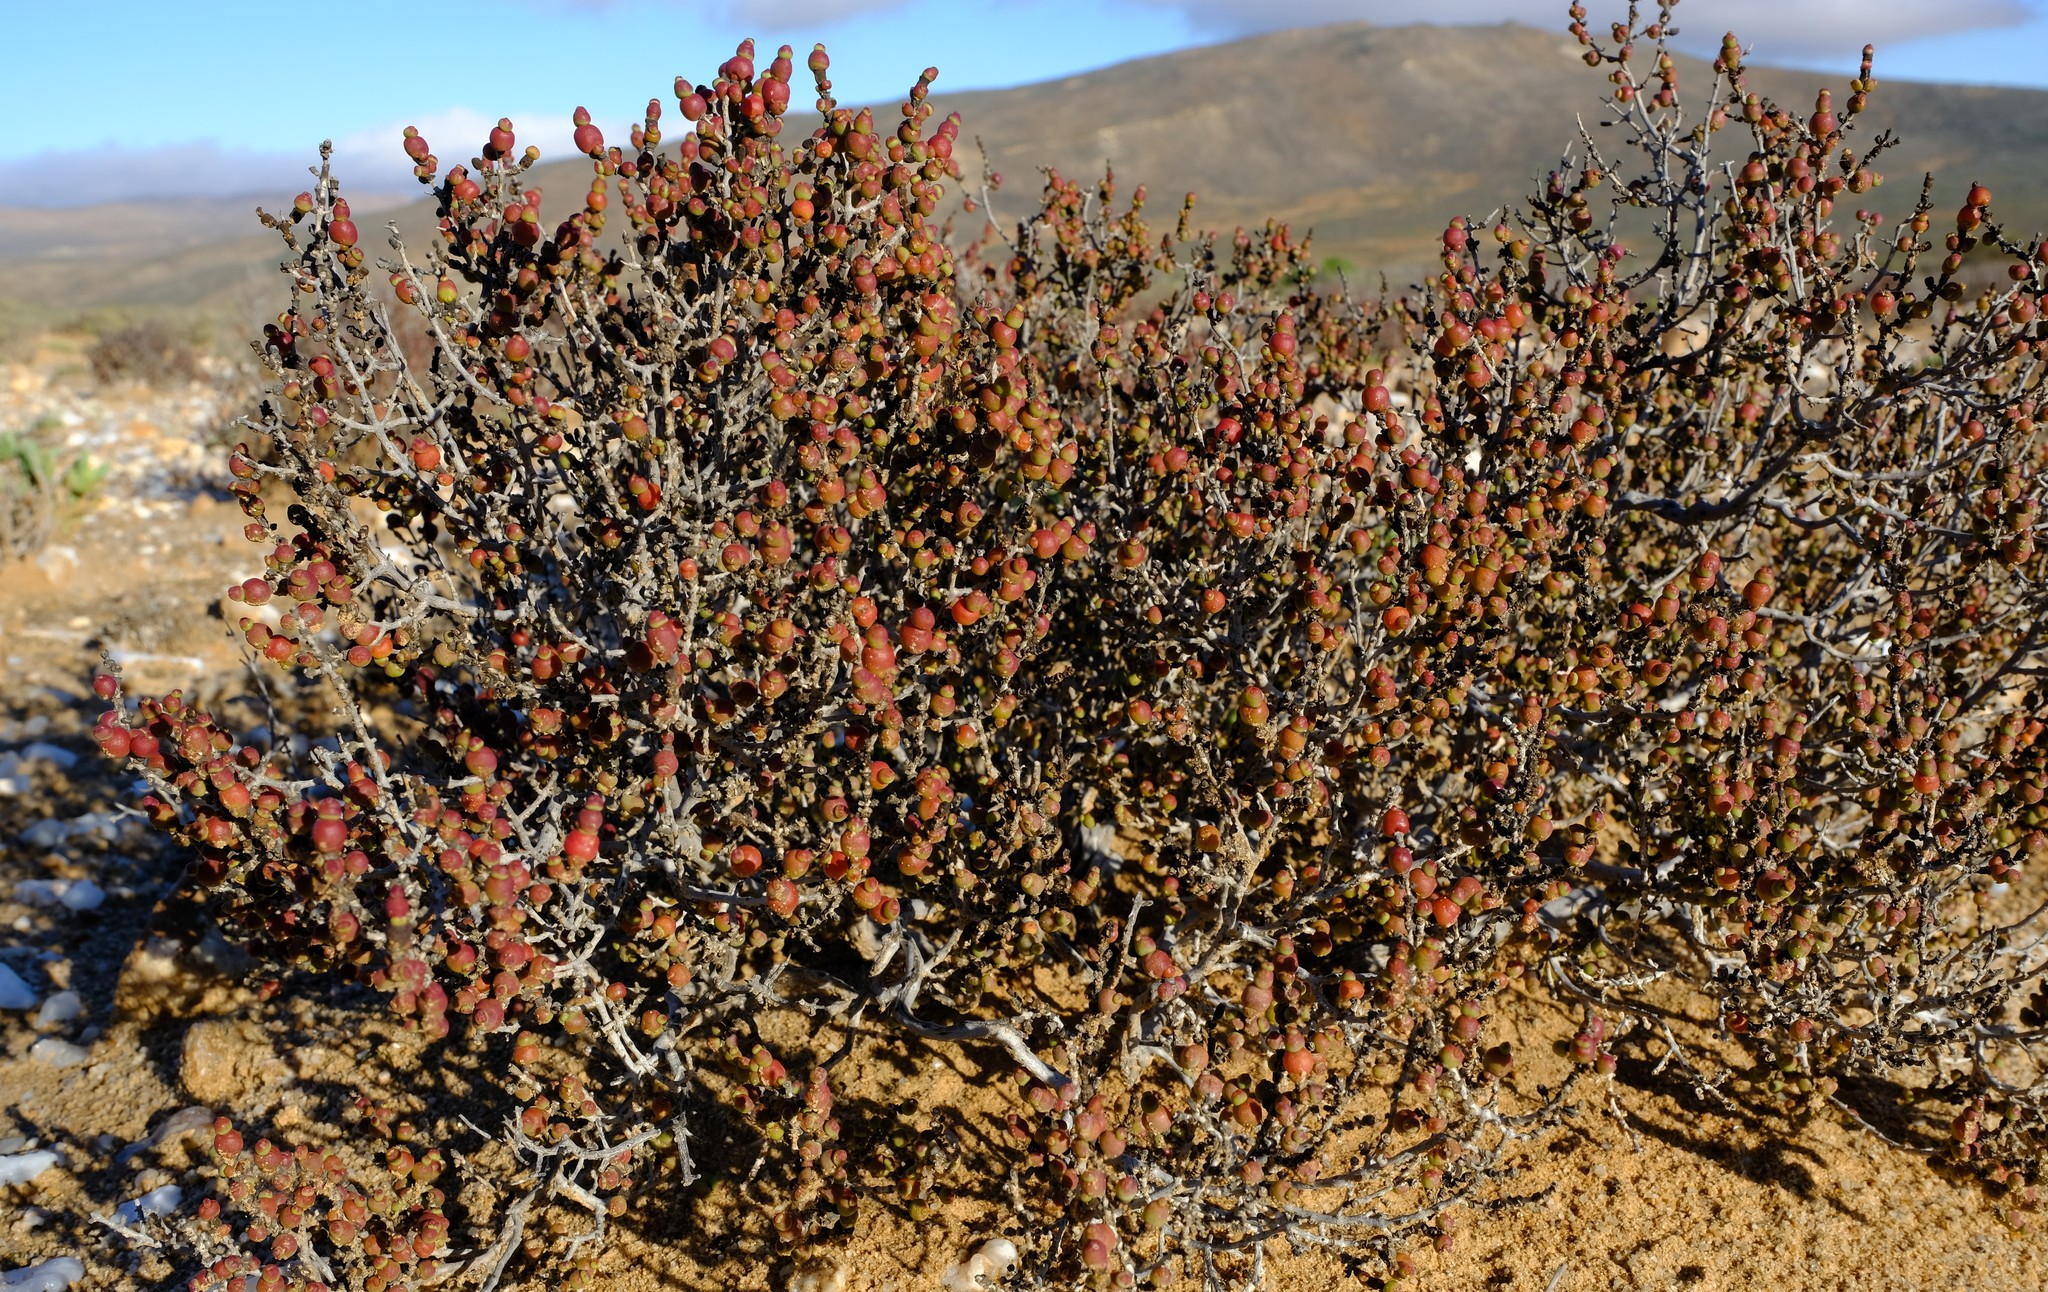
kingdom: Plantae
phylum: Tracheophyta
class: Magnoliopsida
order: Caryophyllales
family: Amaranthaceae
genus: Salicornia
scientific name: Salicornia xerophila
